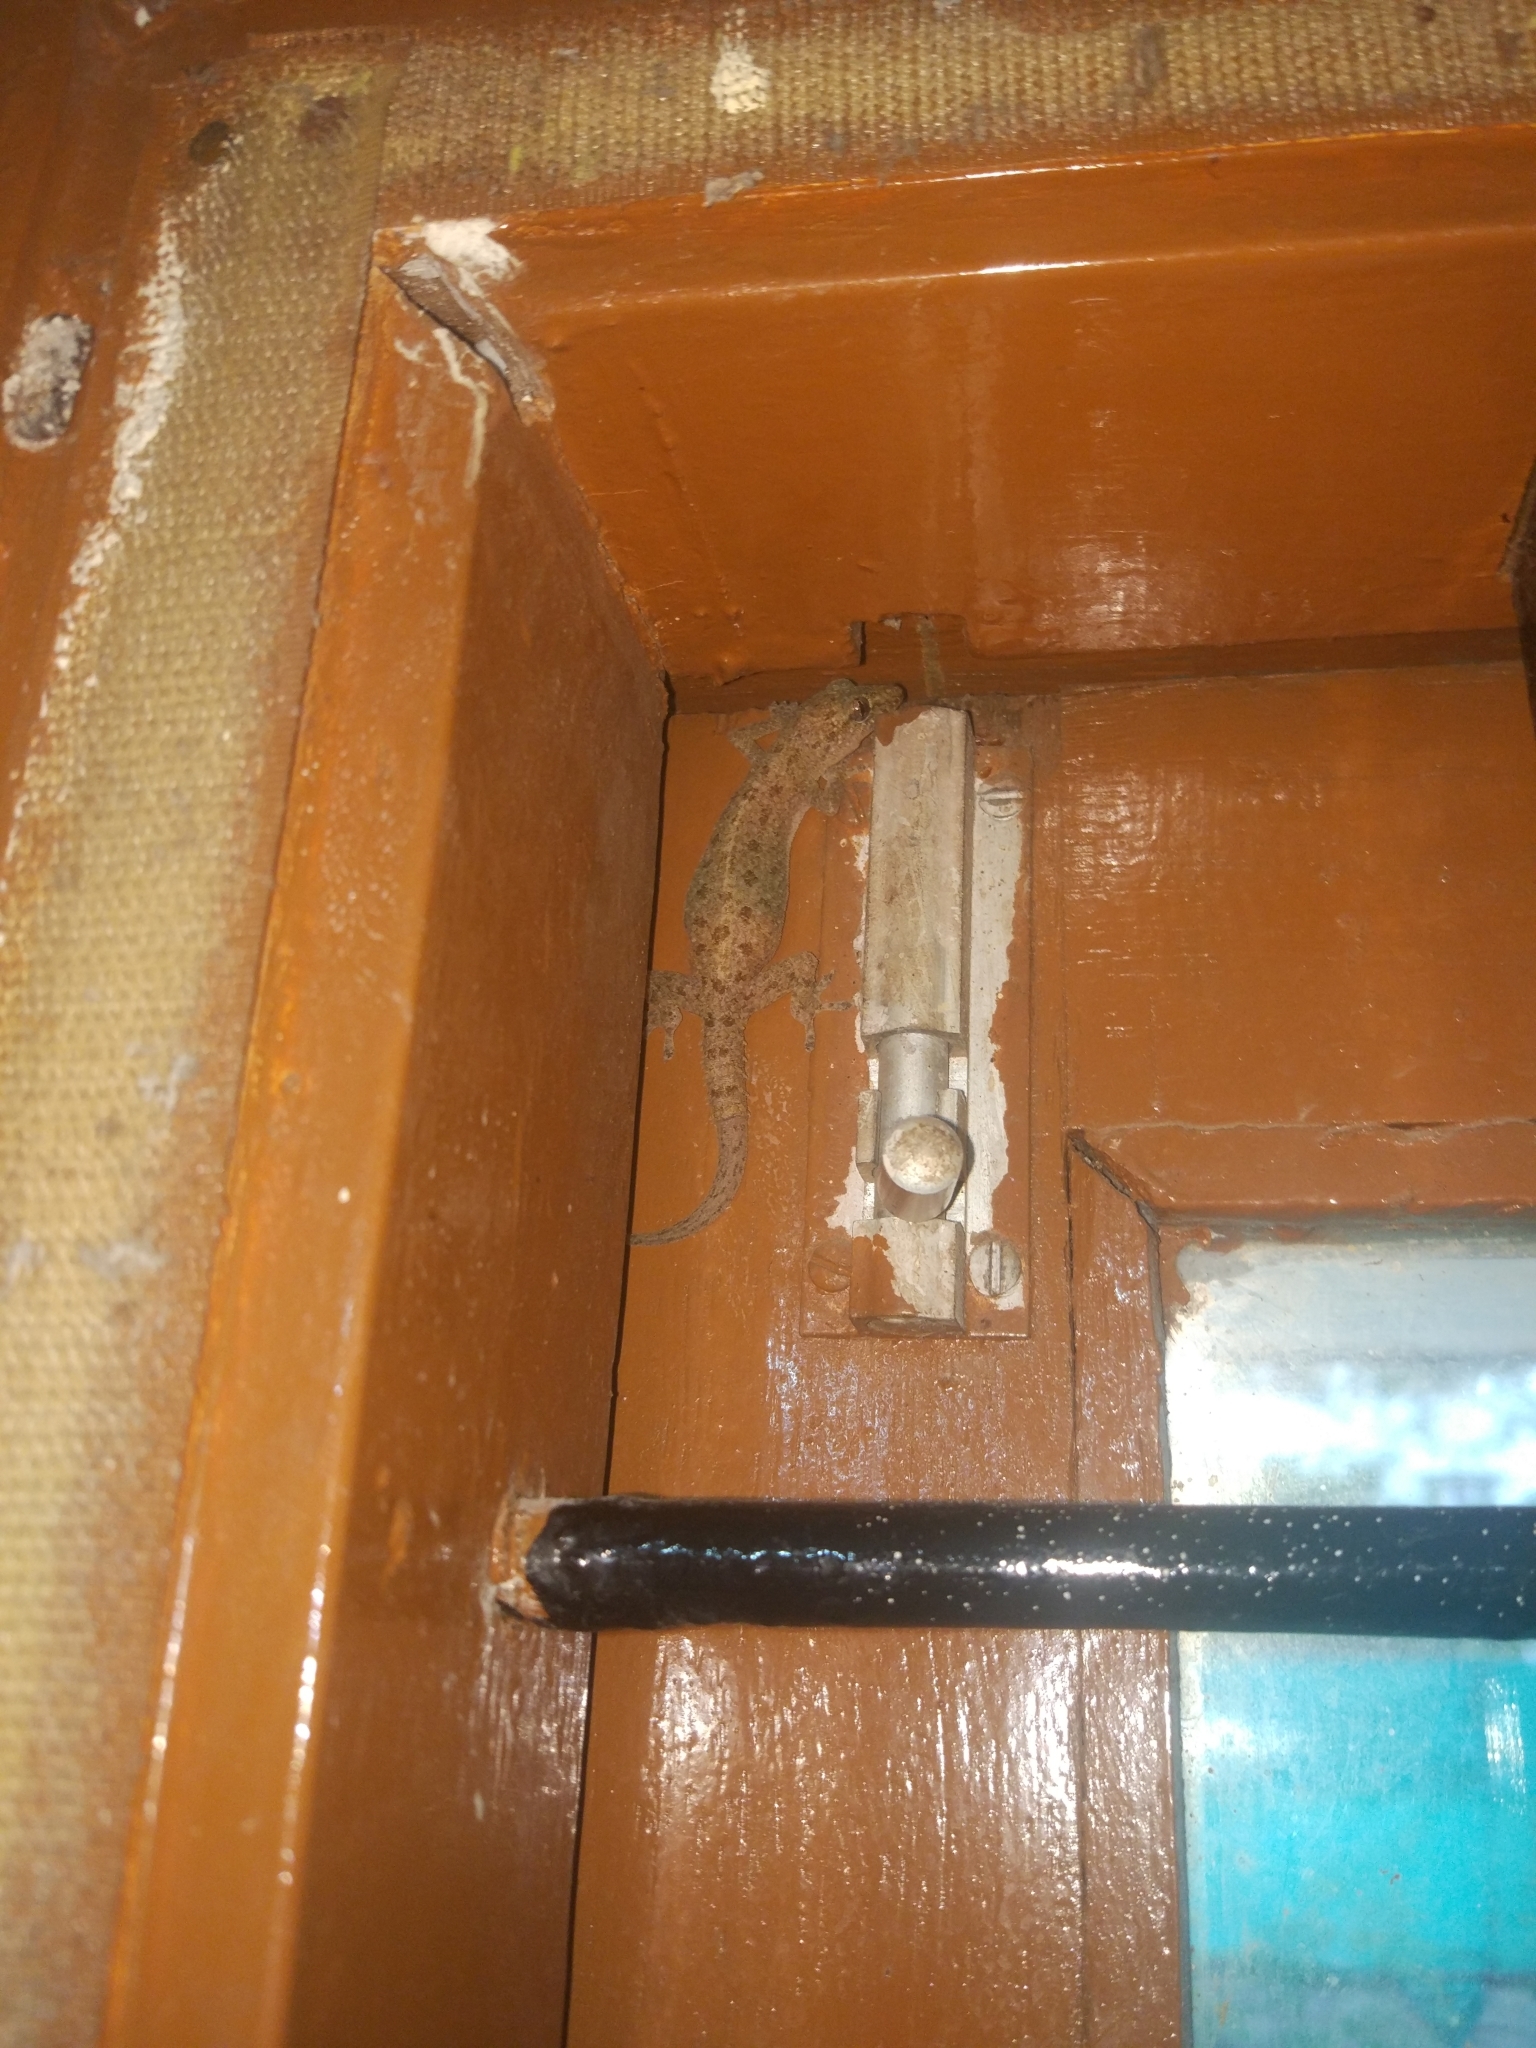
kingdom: Animalia
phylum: Chordata
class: Squamata
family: Gekkonidae
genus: Hemidactylus
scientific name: Hemidactylus parvimaculatus
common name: Spotted house gecko
